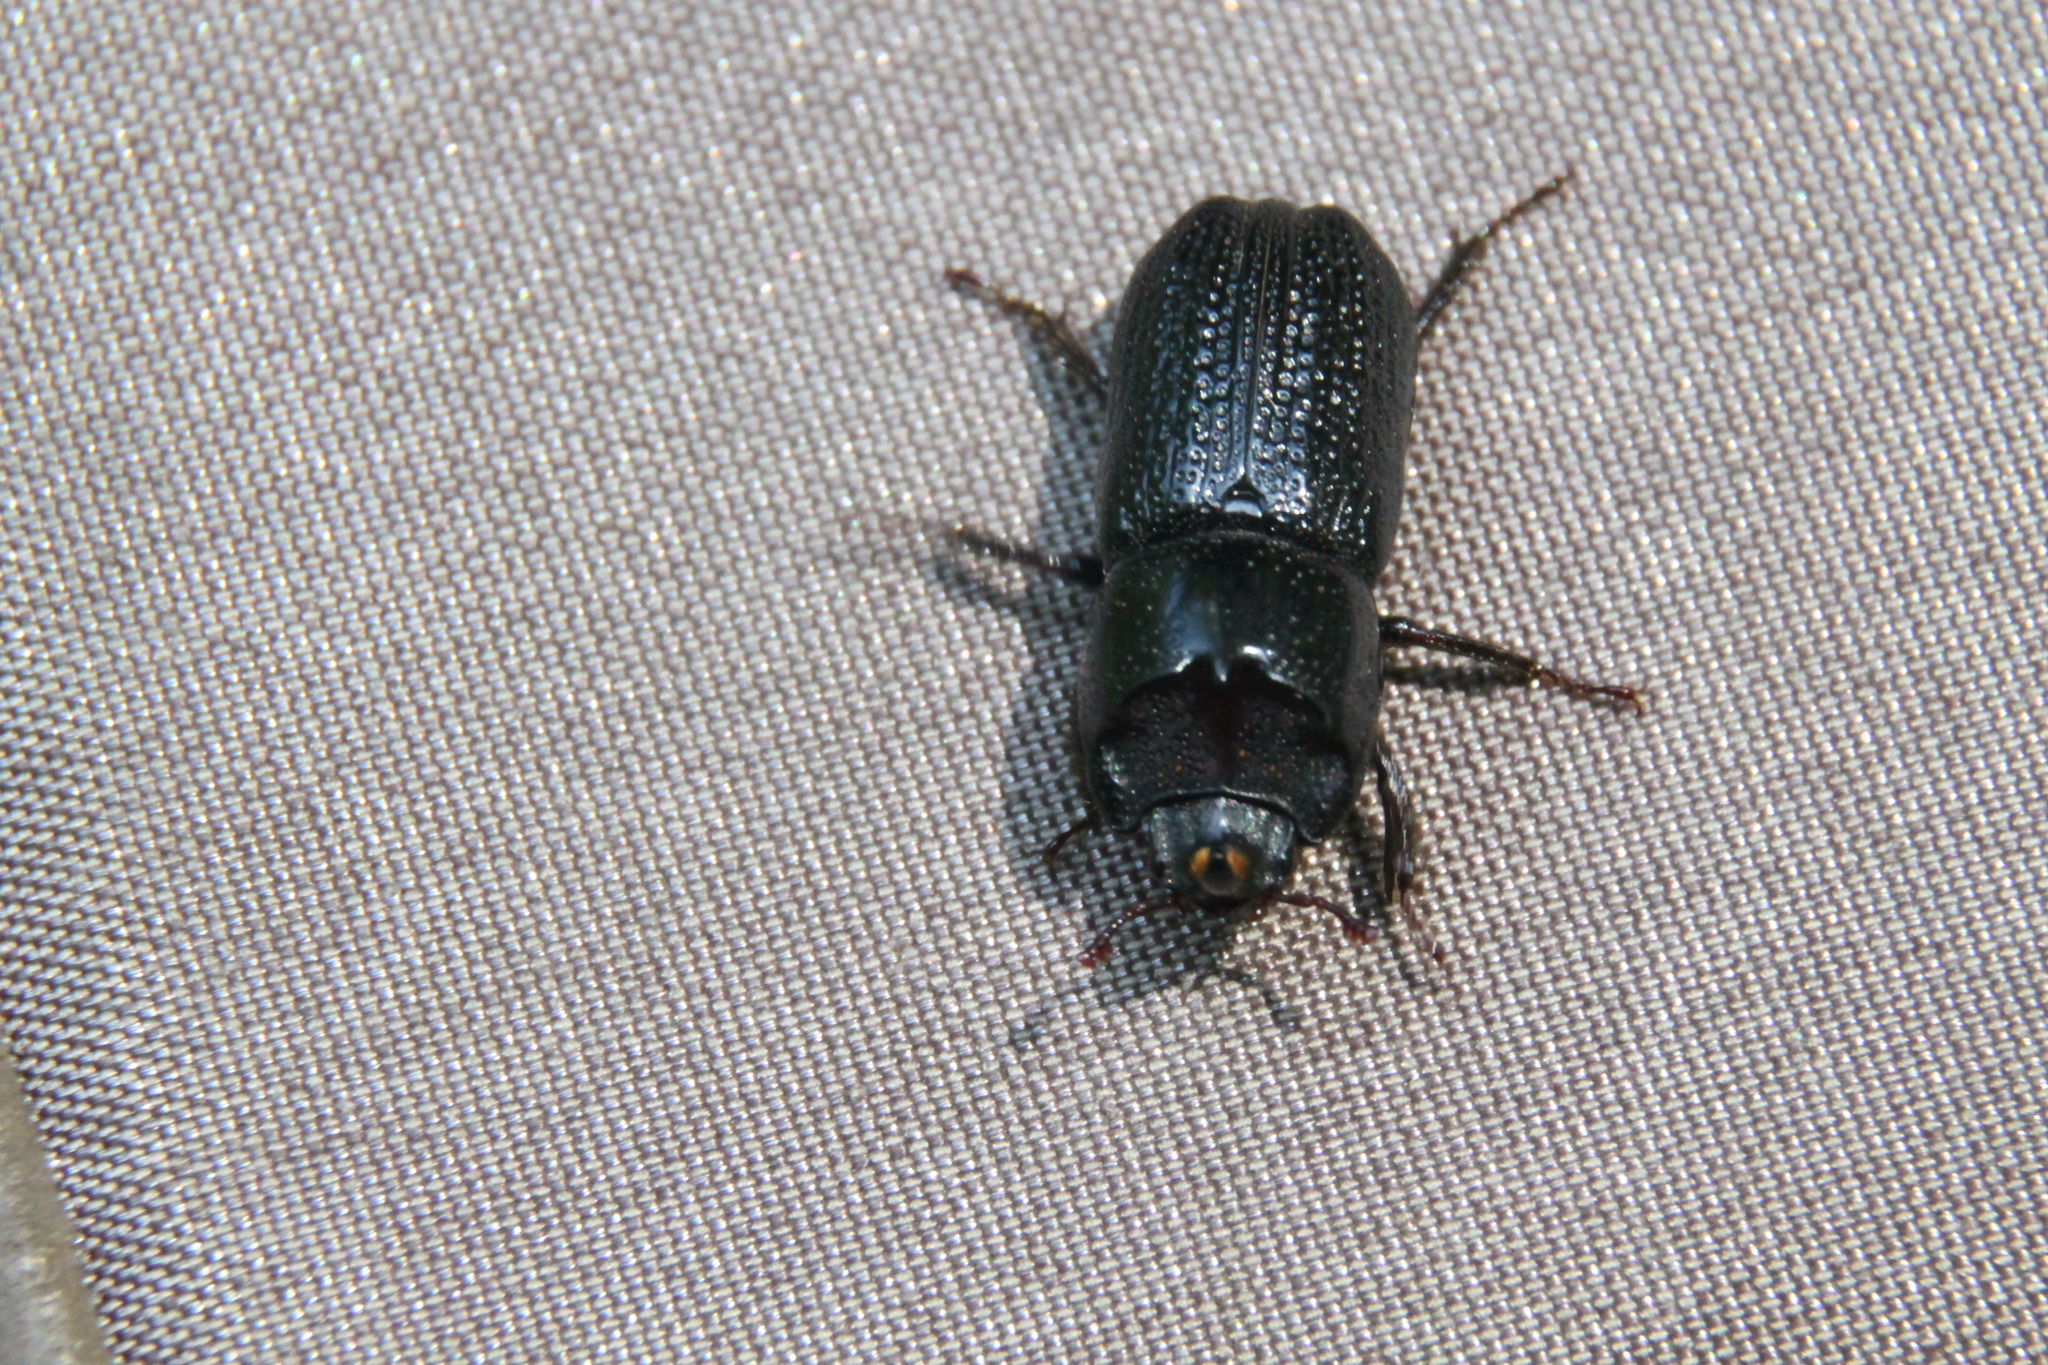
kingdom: Animalia
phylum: Arthropoda
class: Insecta
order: Coleoptera
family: Lucanidae
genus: Sinodendron
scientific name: Sinodendron cylindricum
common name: Rhinoceros beetle
